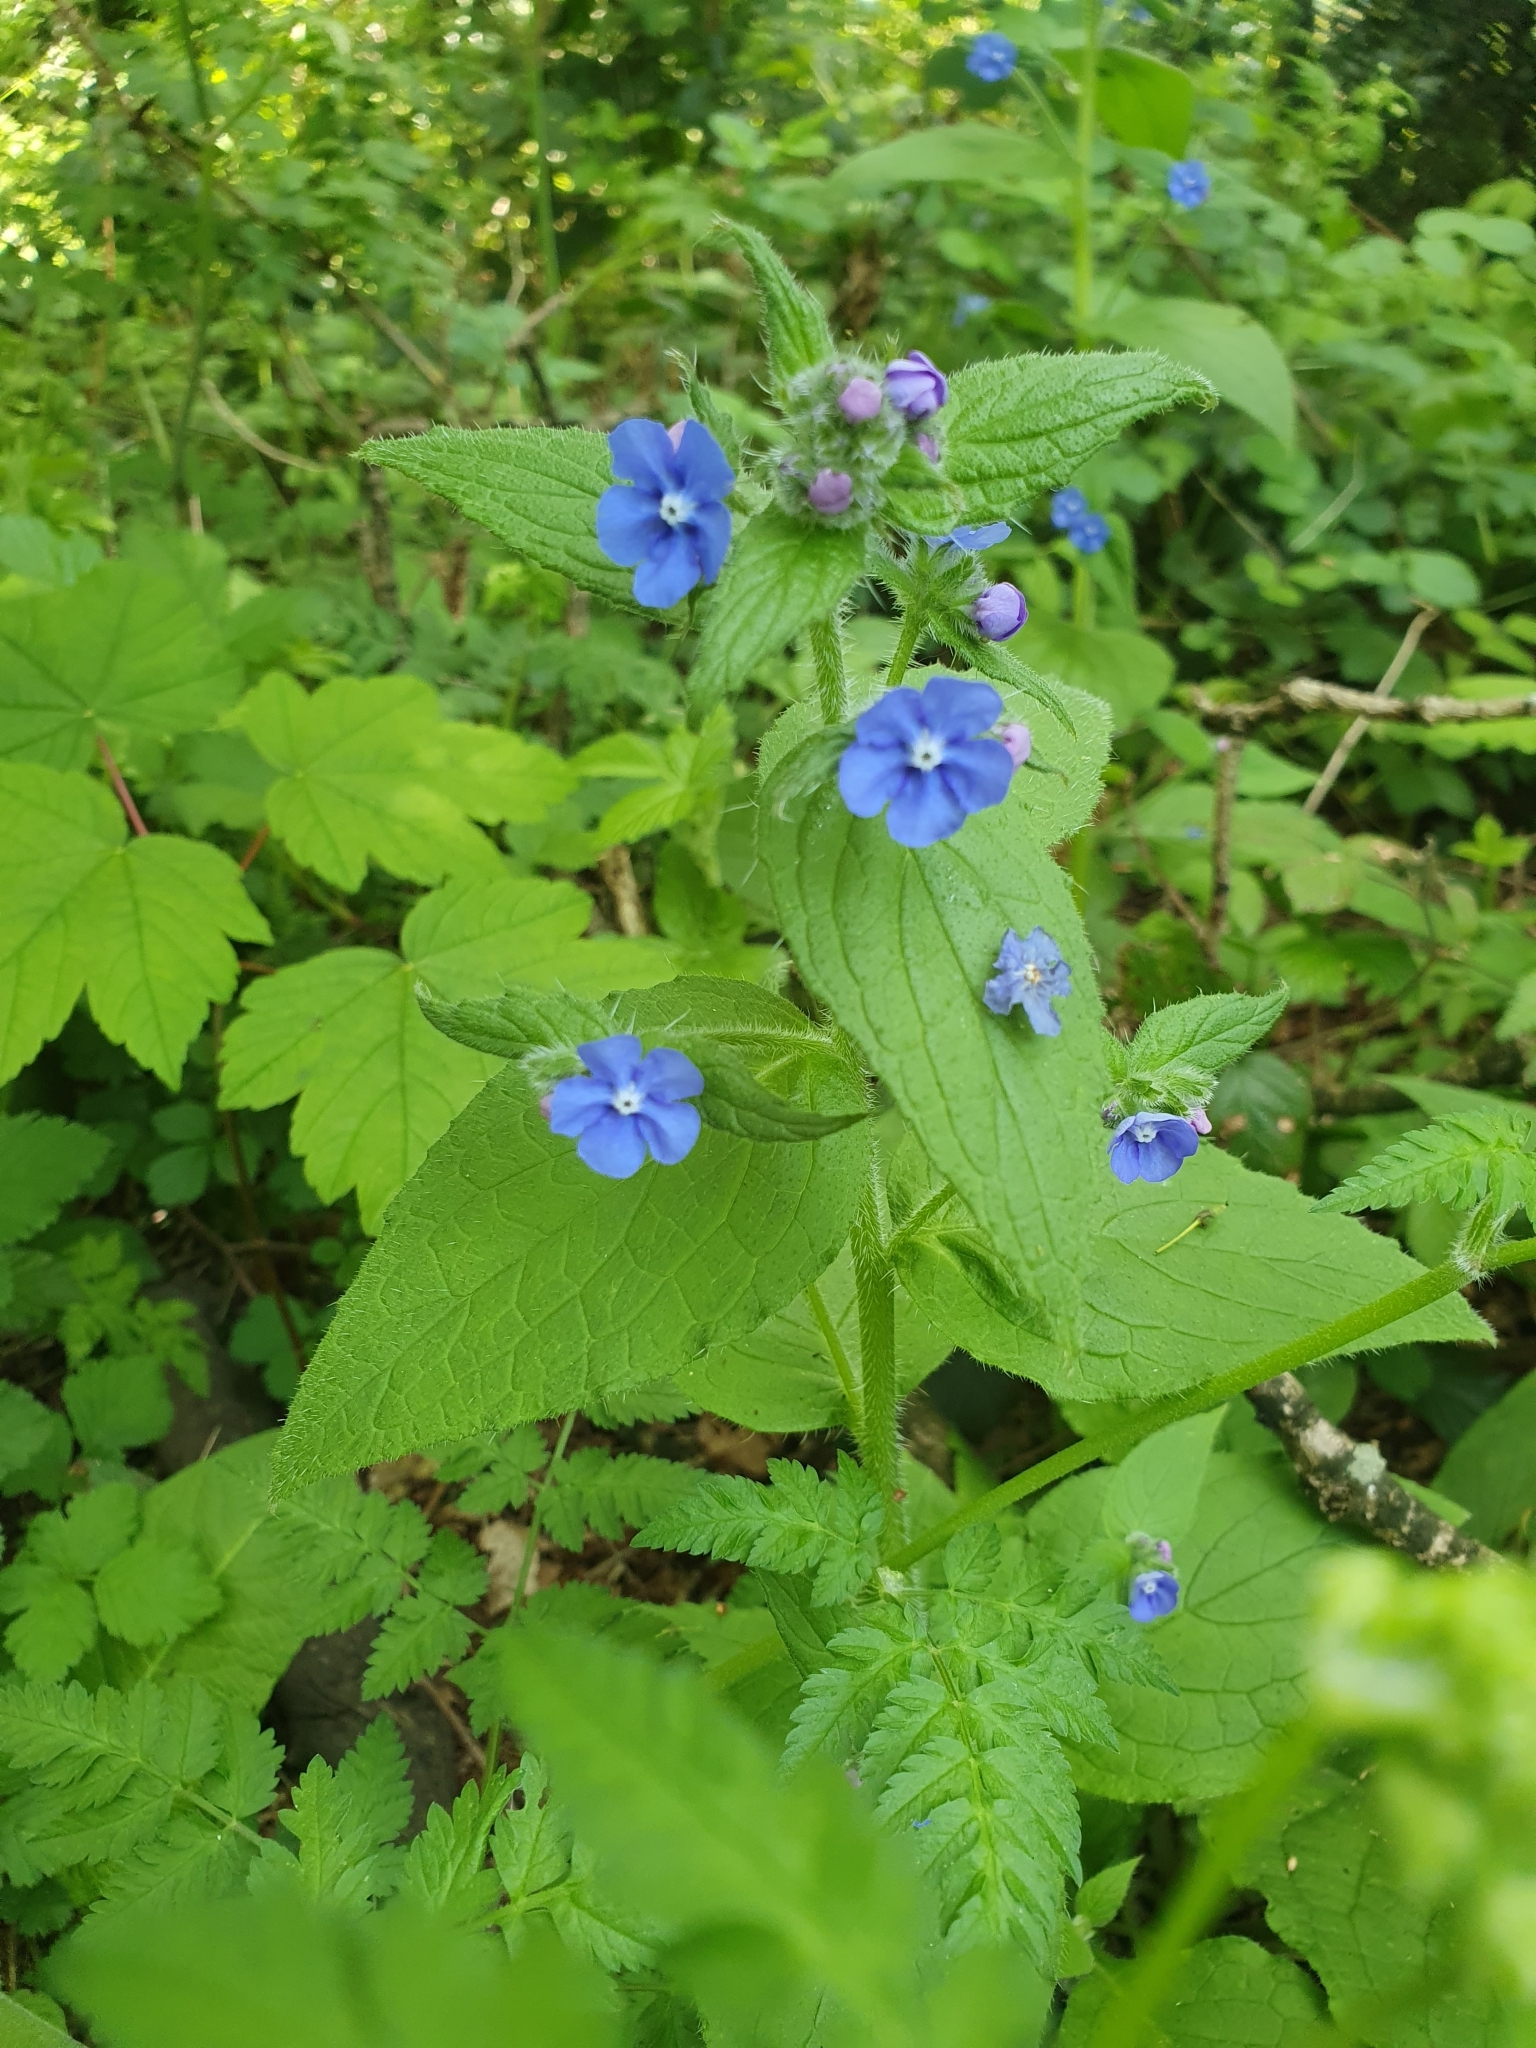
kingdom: Plantae
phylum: Tracheophyta
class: Magnoliopsida
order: Boraginales
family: Boraginaceae
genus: Pentaglottis
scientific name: Pentaglottis sempervirens
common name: Green alkanet
